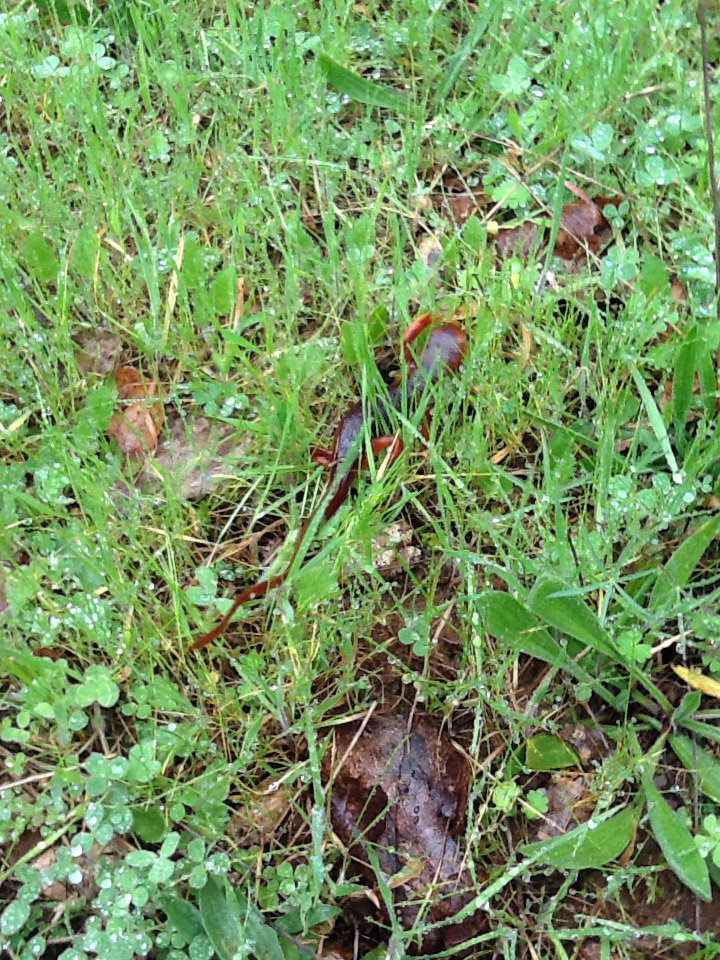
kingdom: Animalia
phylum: Chordata
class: Amphibia
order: Caudata
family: Salamandridae
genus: Taricha
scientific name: Taricha sierrae
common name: Sierra newt
